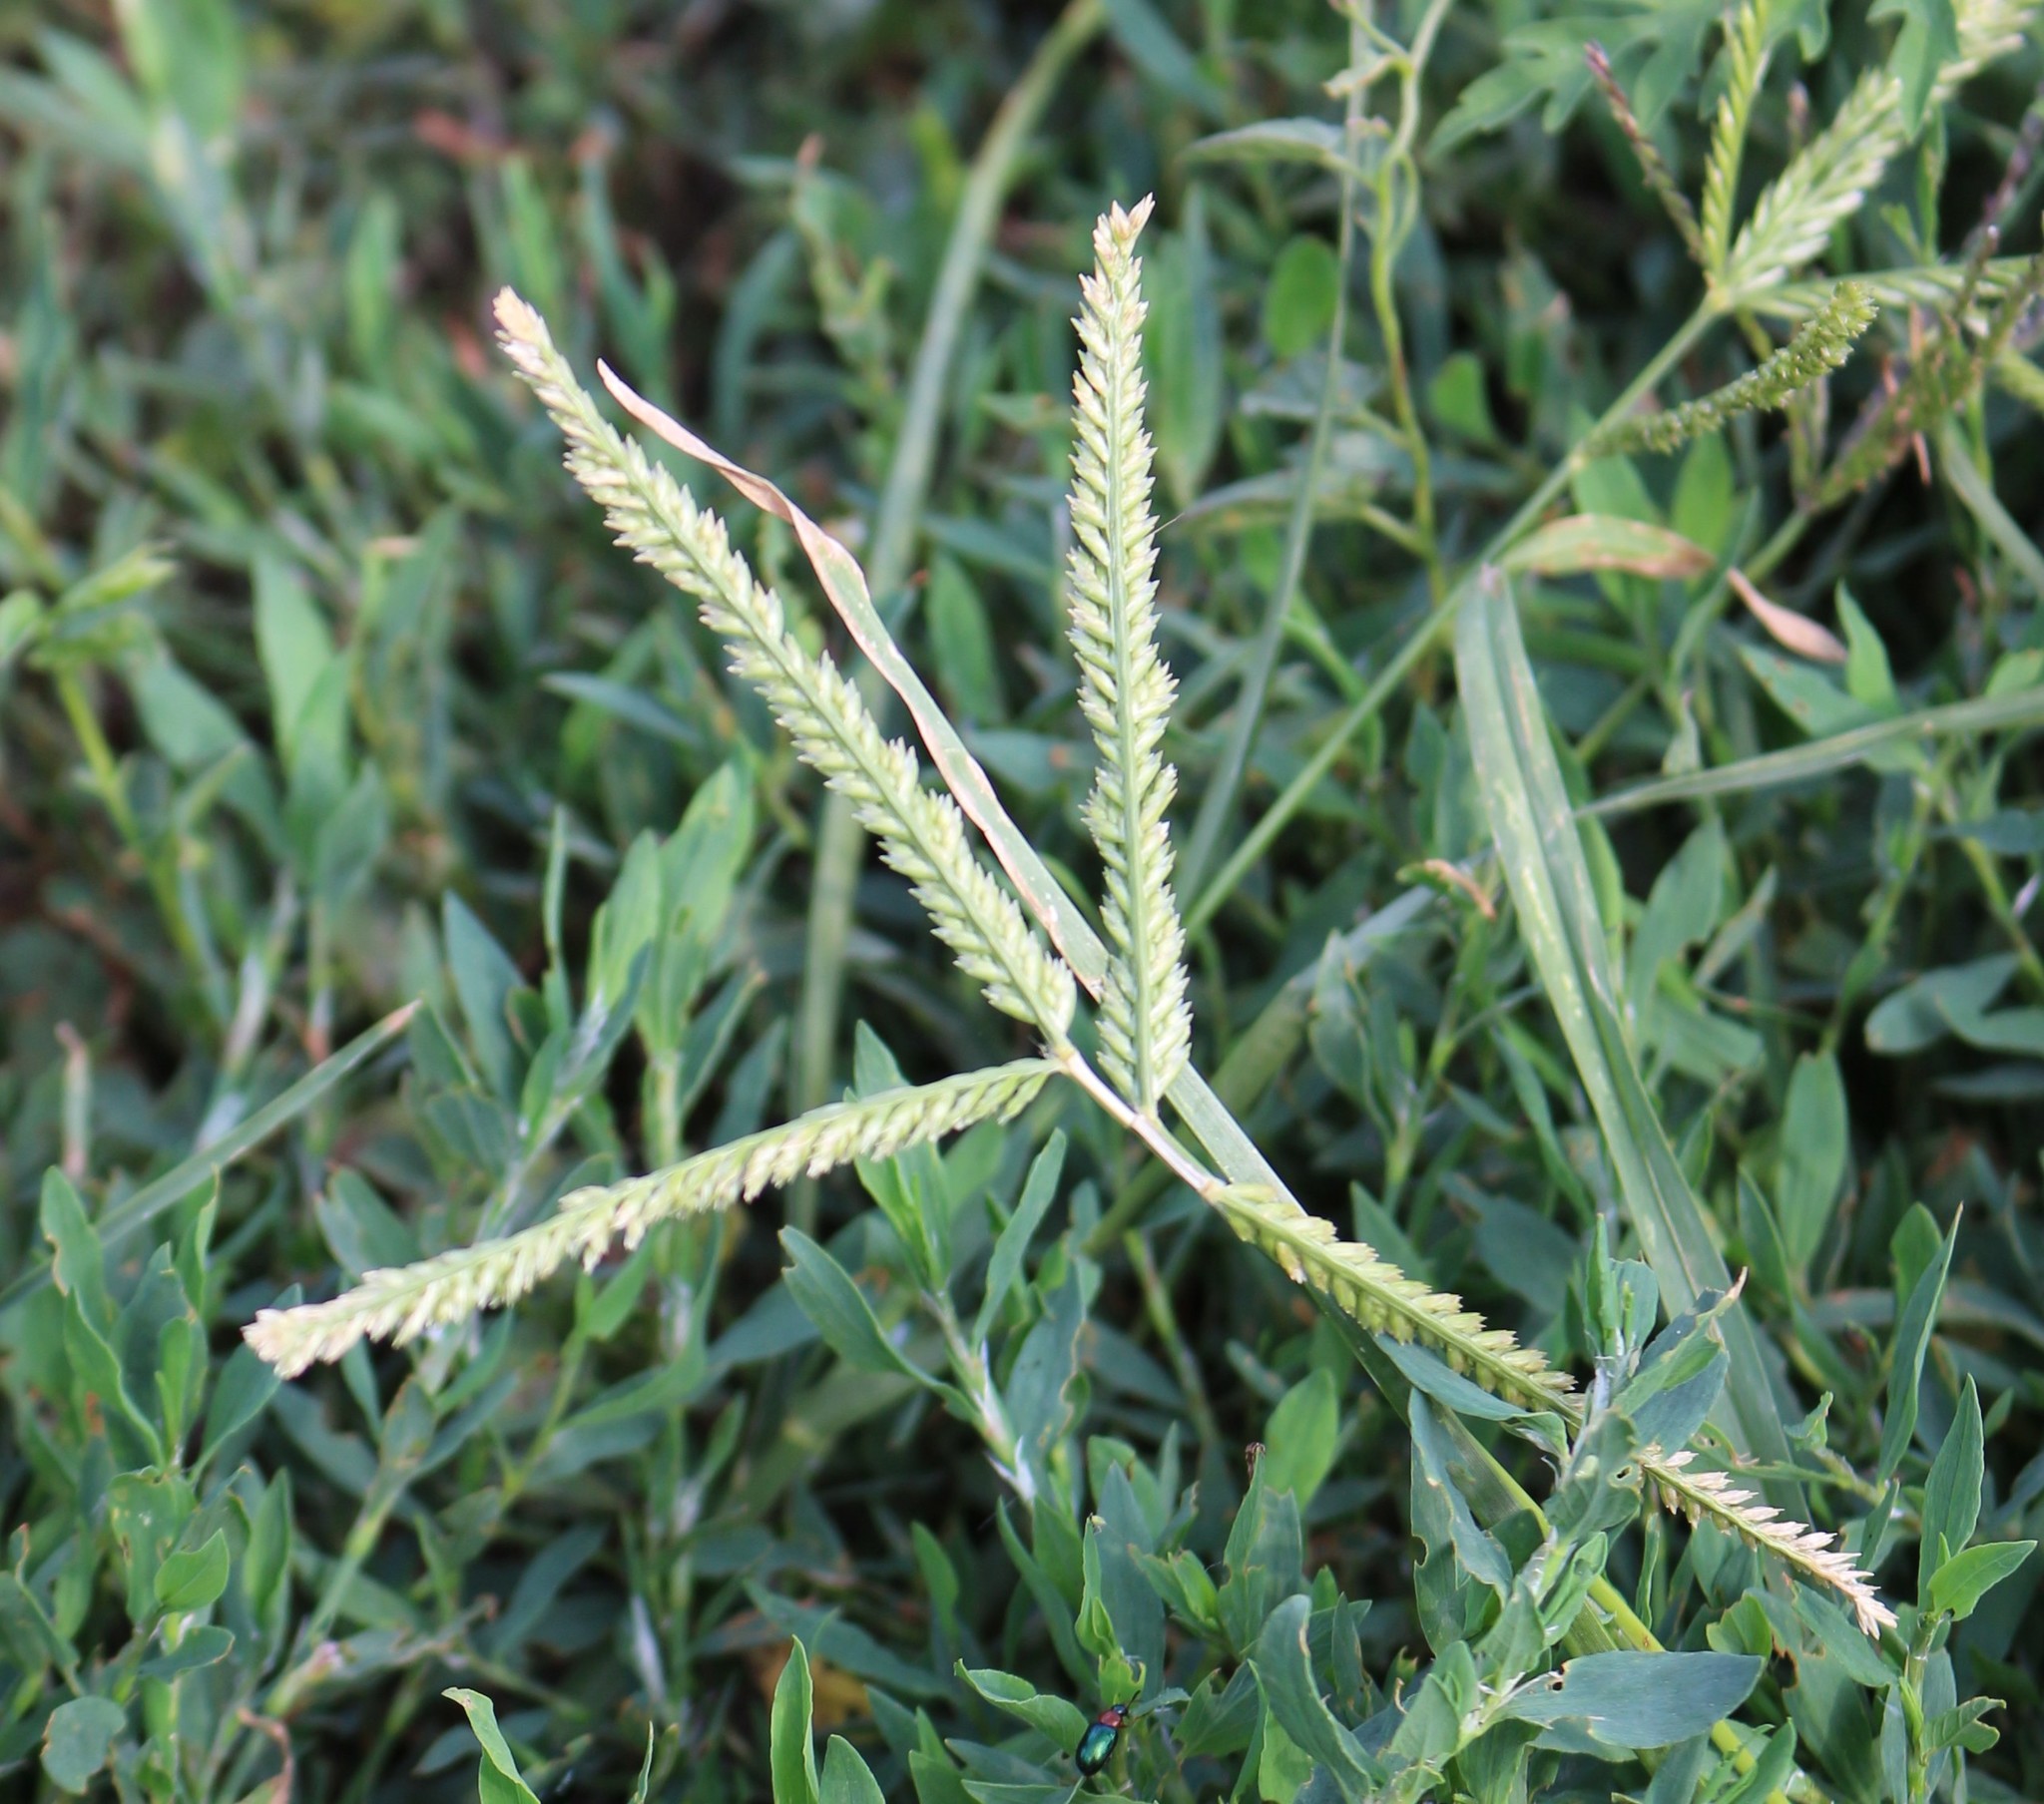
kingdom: Plantae
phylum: Tracheophyta
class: Liliopsida
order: Poales
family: Poaceae
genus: Eleusine
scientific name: Eleusine indica
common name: Yard-grass
